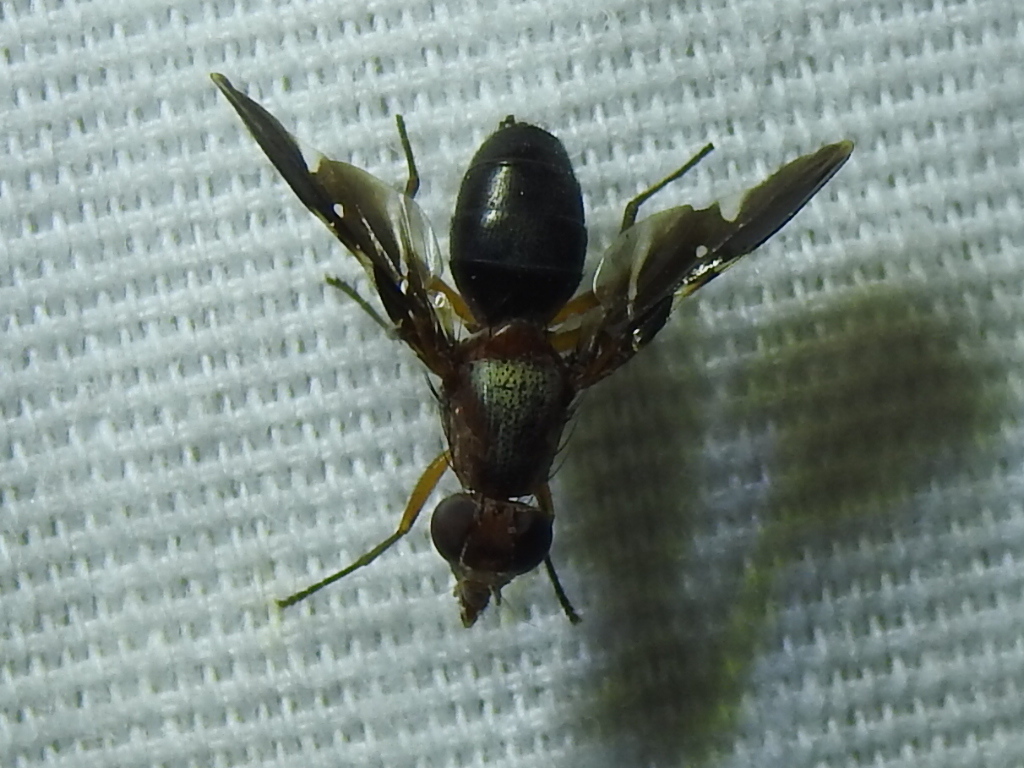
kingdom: Animalia
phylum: Arthropoda
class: Insecta
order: Diptera
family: Ulidiidae
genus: Delphinia
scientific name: Delphinia picta
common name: Common picture-winged fly
